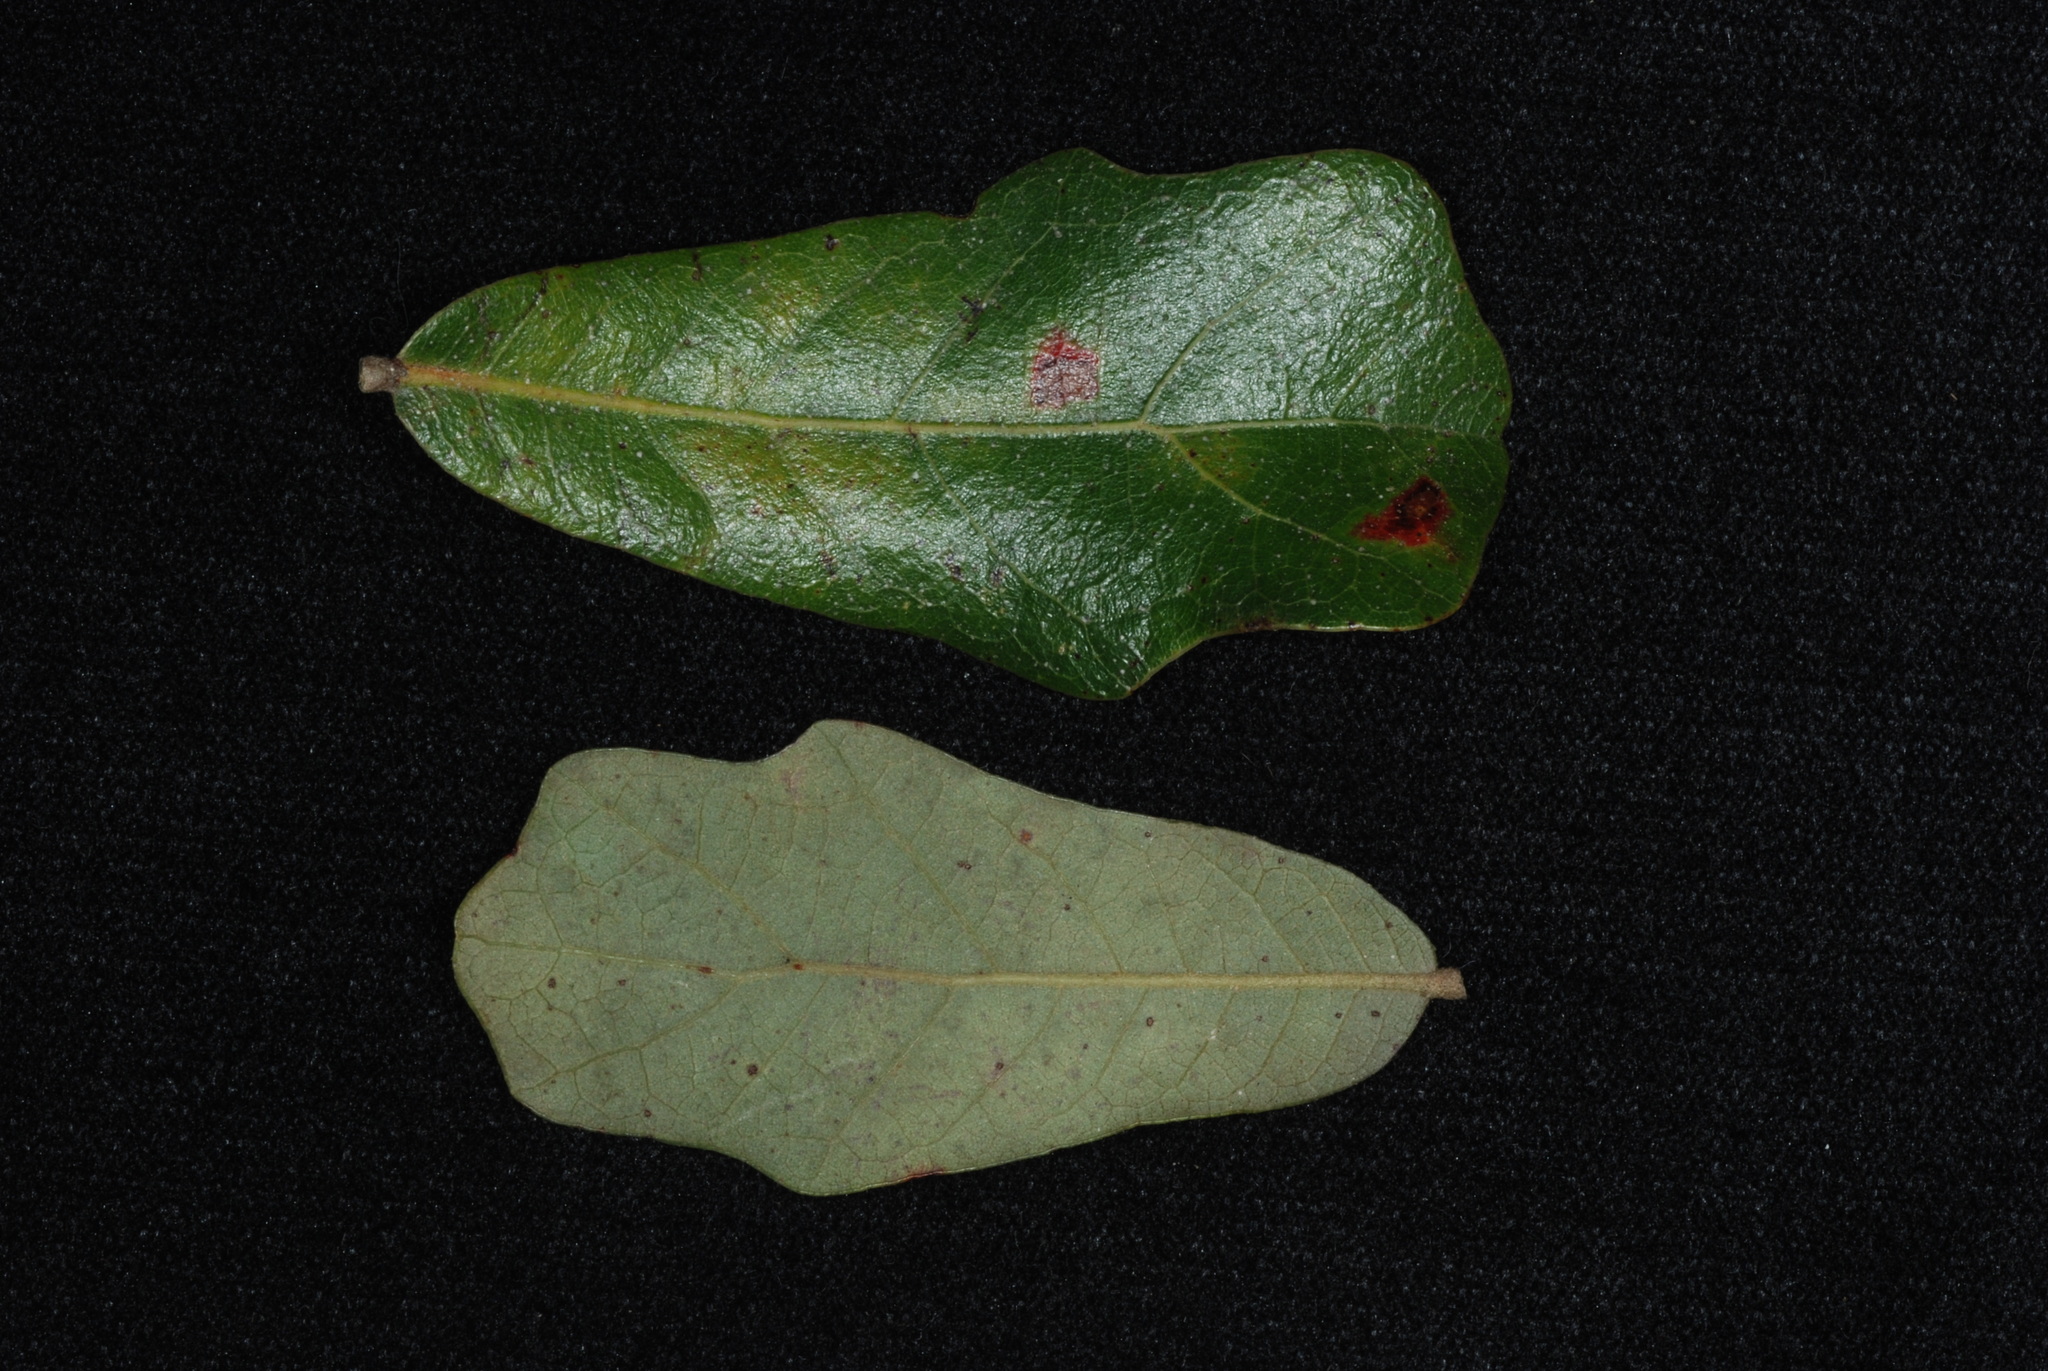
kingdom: Plantae
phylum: Tracheophyta
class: Magnoliopsida
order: Fagales
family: Fagaceae
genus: Quercus
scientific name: Quercus chapmanii
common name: Chapman oak
